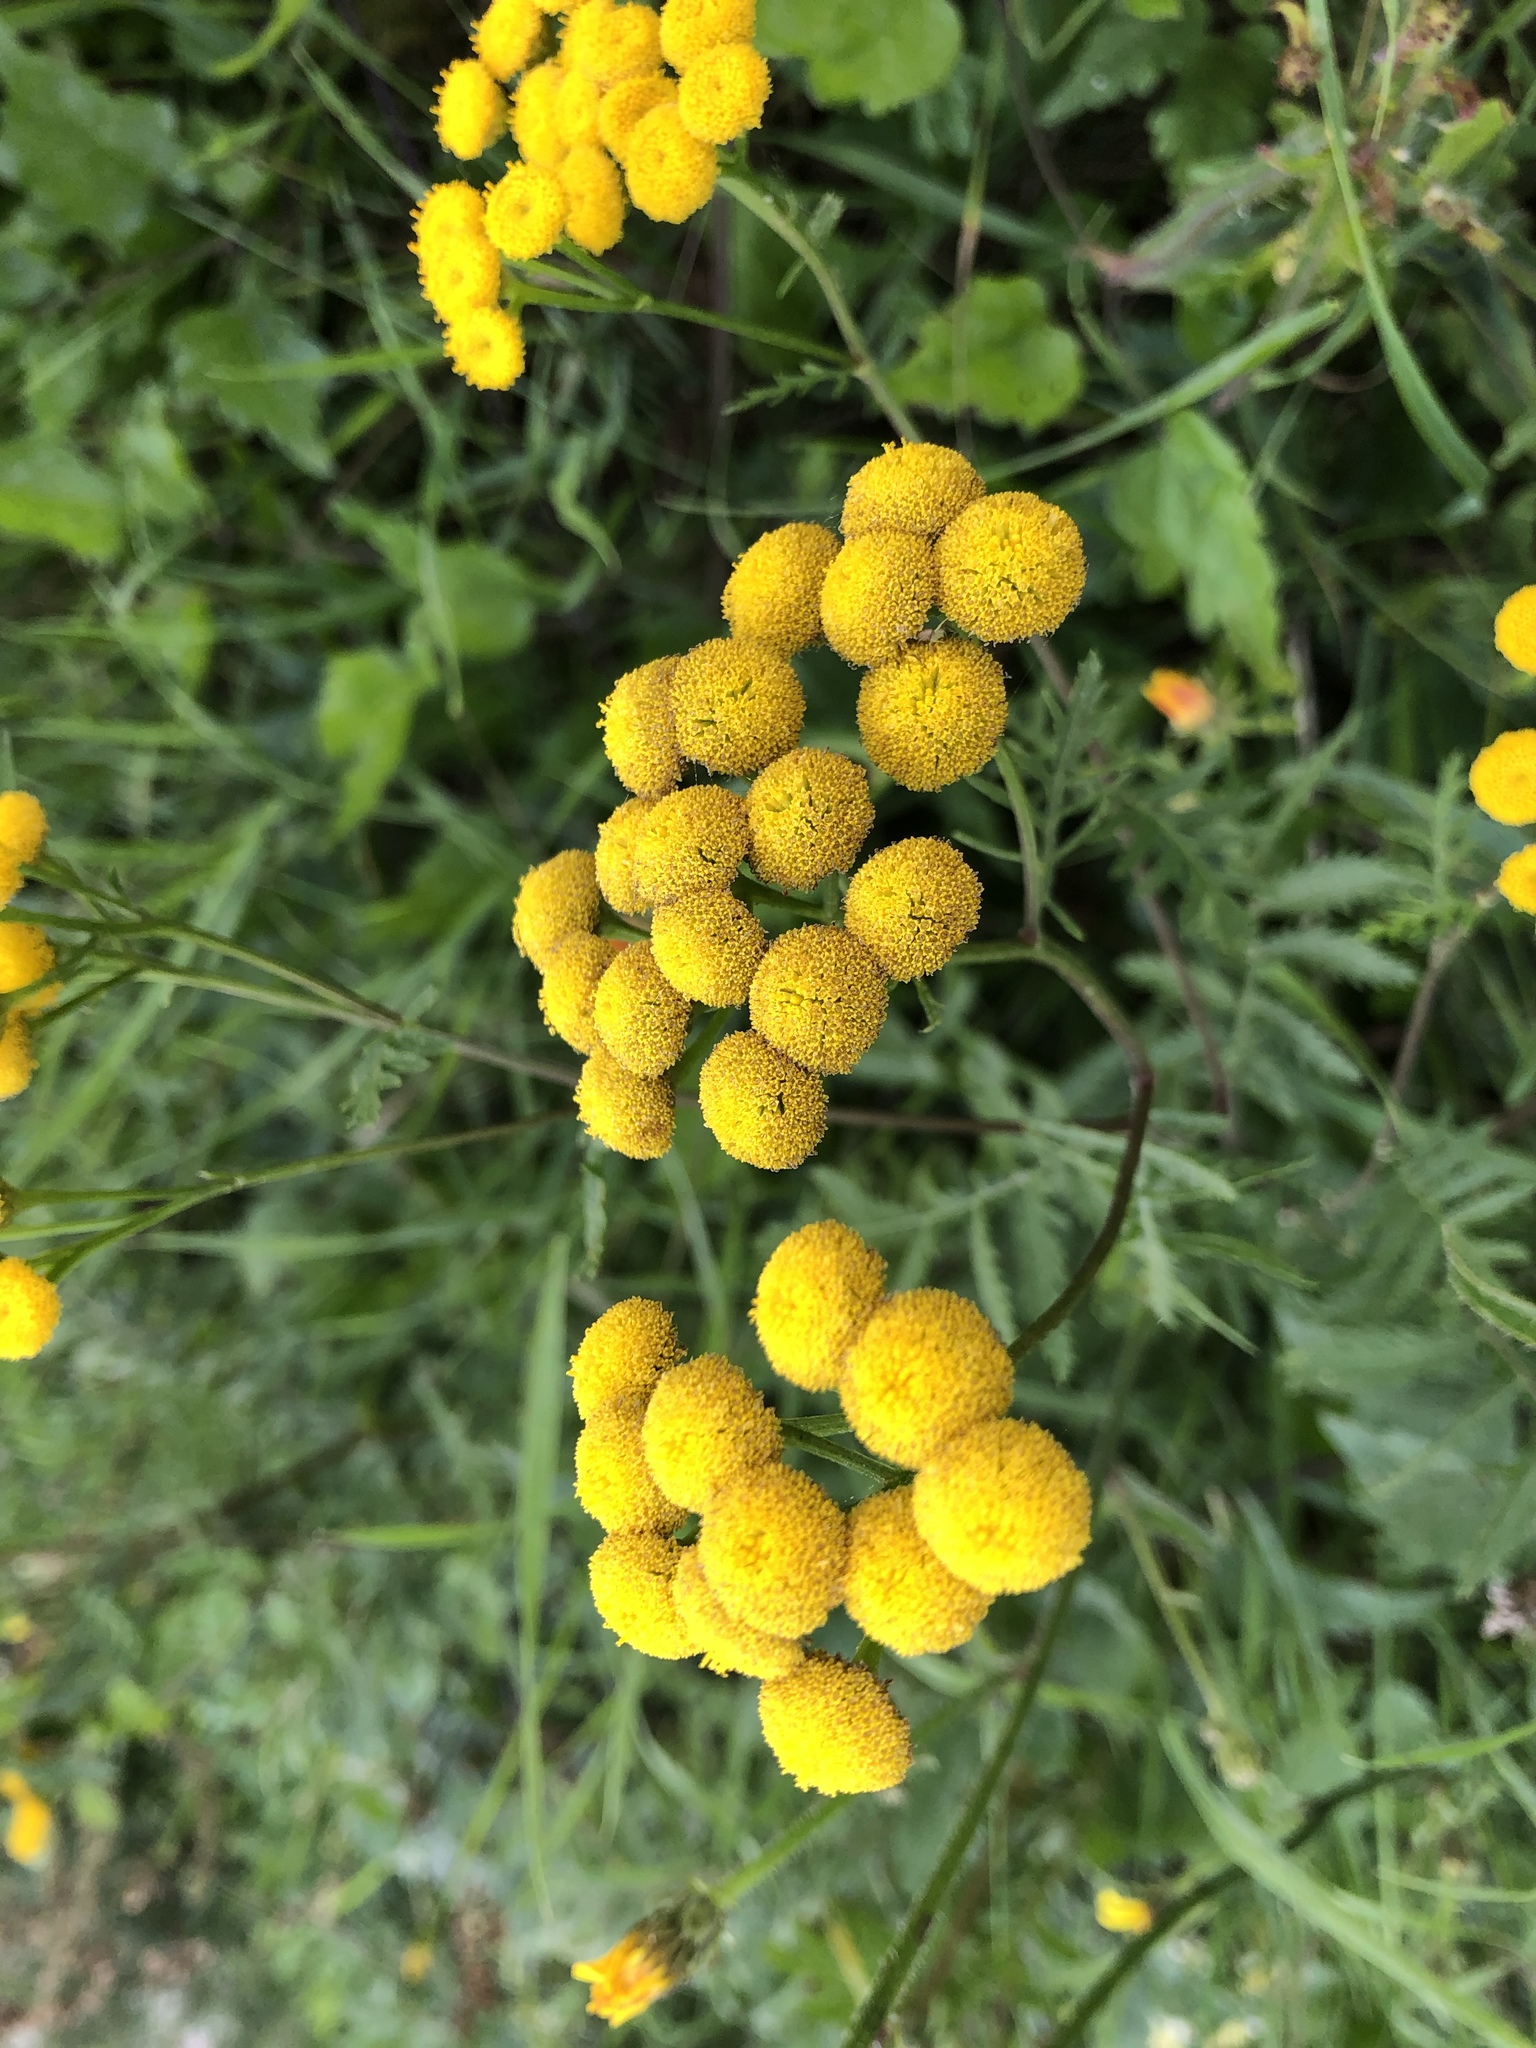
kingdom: Plantae
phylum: Tracheophyta
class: Magnoliopsida
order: Asterales
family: Asteraceae
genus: Tanacetum
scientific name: Tanacetum vulgare
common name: Common tansy
